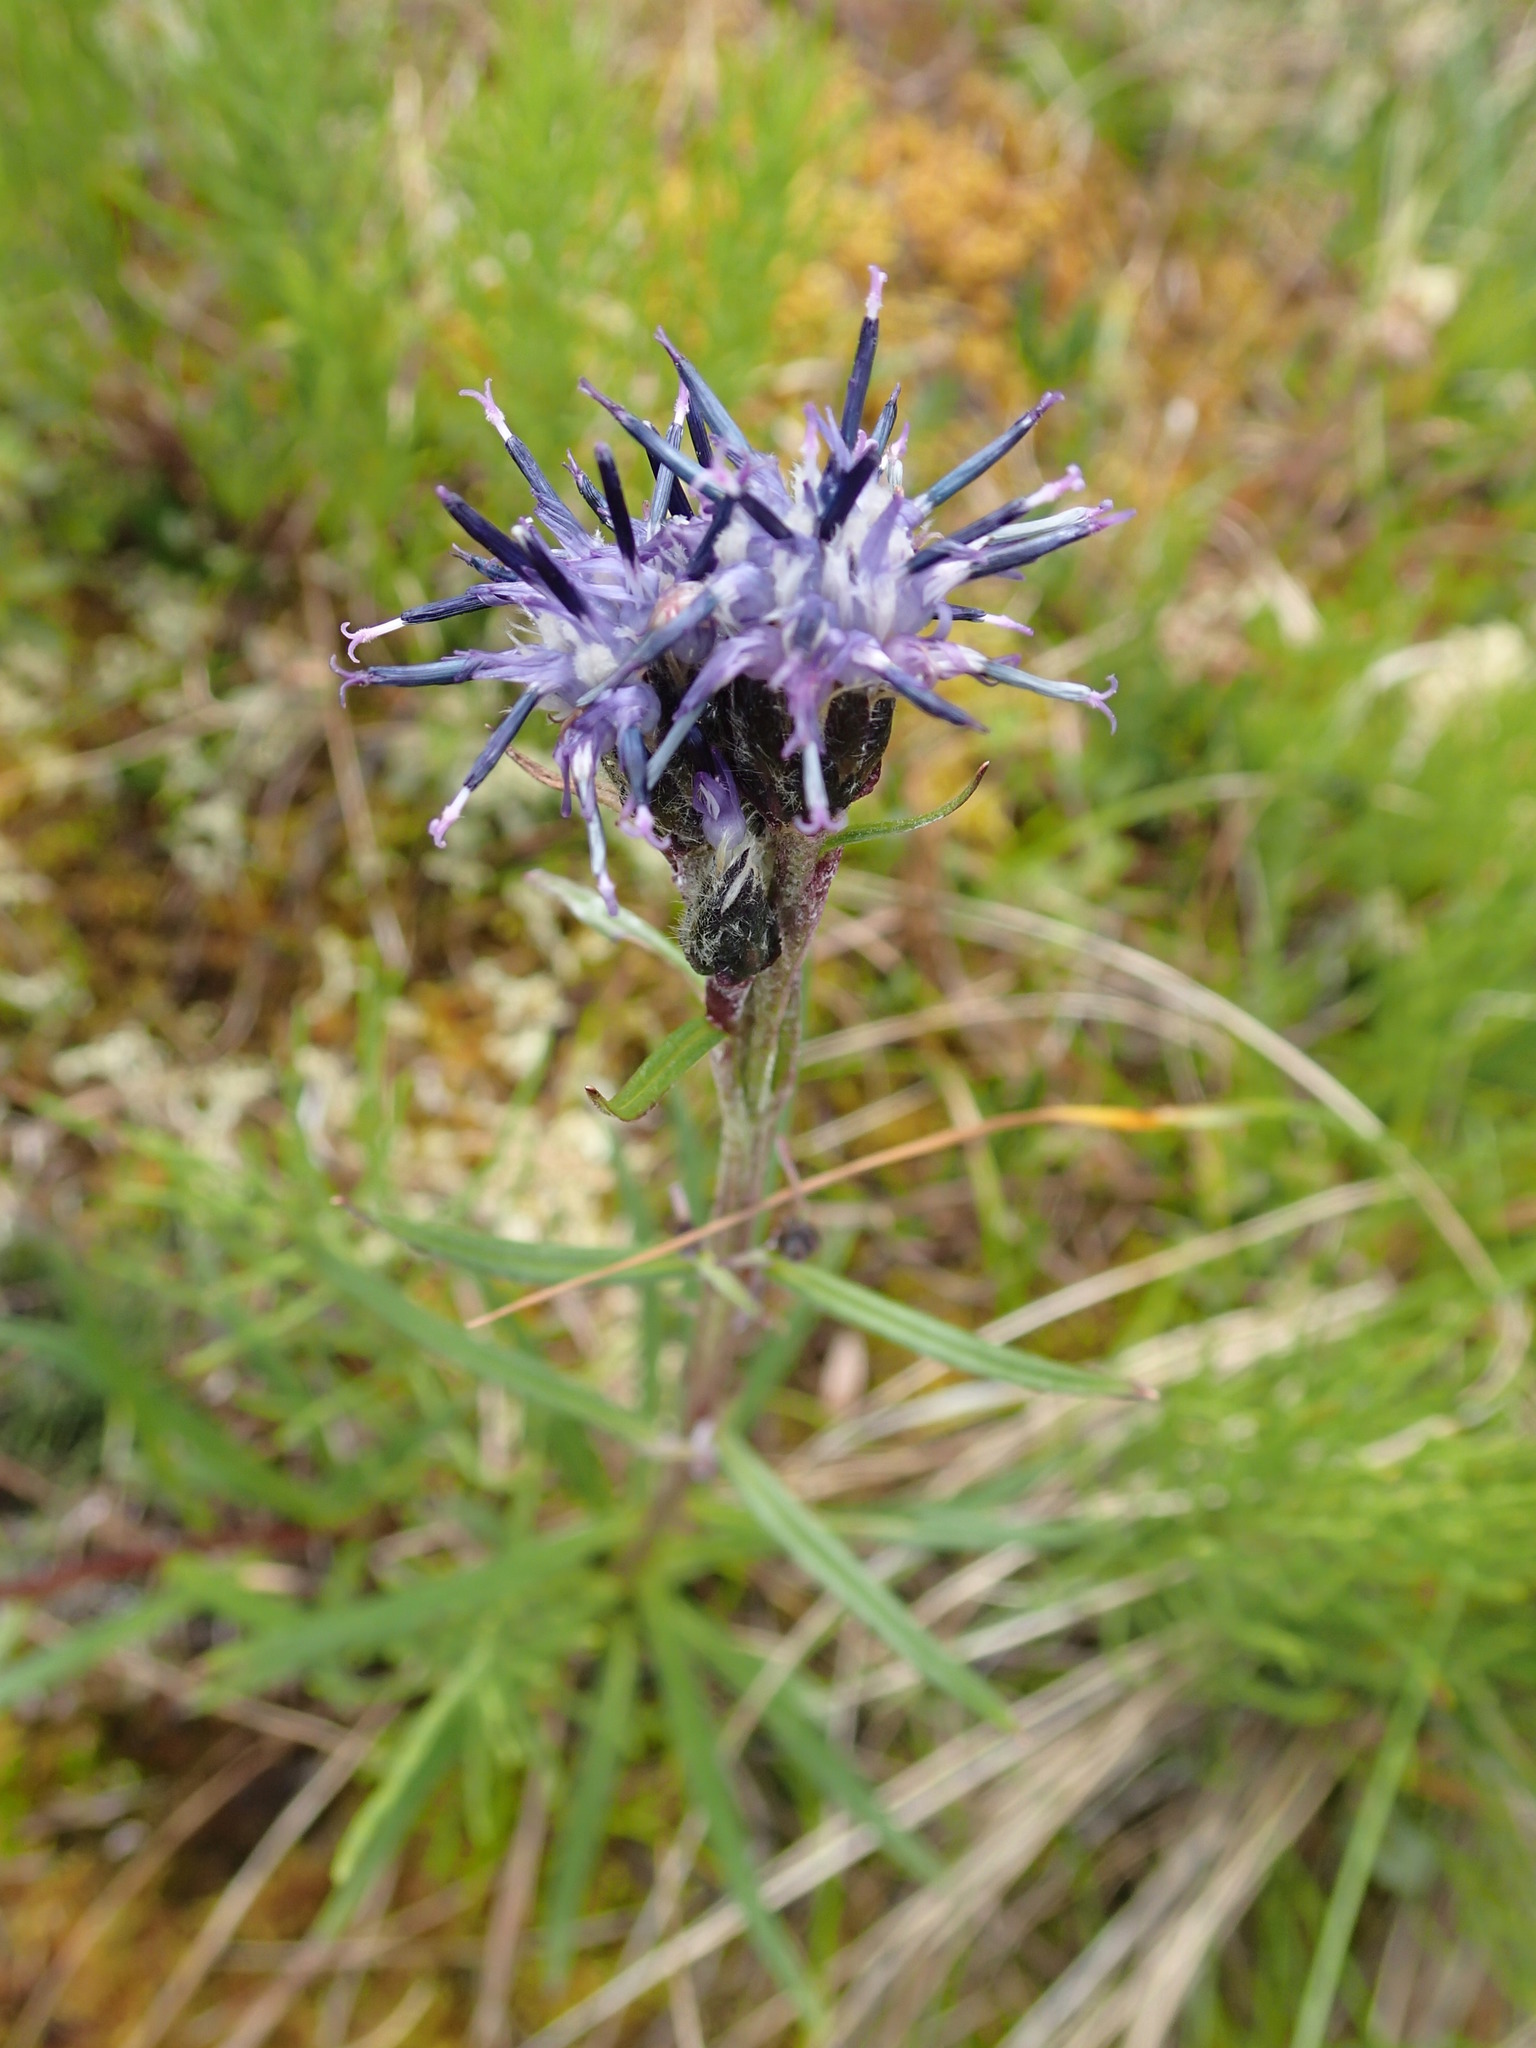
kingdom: Plantae
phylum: Tracheophyta
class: Magnoliopsida
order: Asterales
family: Asteraceae
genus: Saussurea
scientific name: Saussurea angustifolia
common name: Common saussurea
